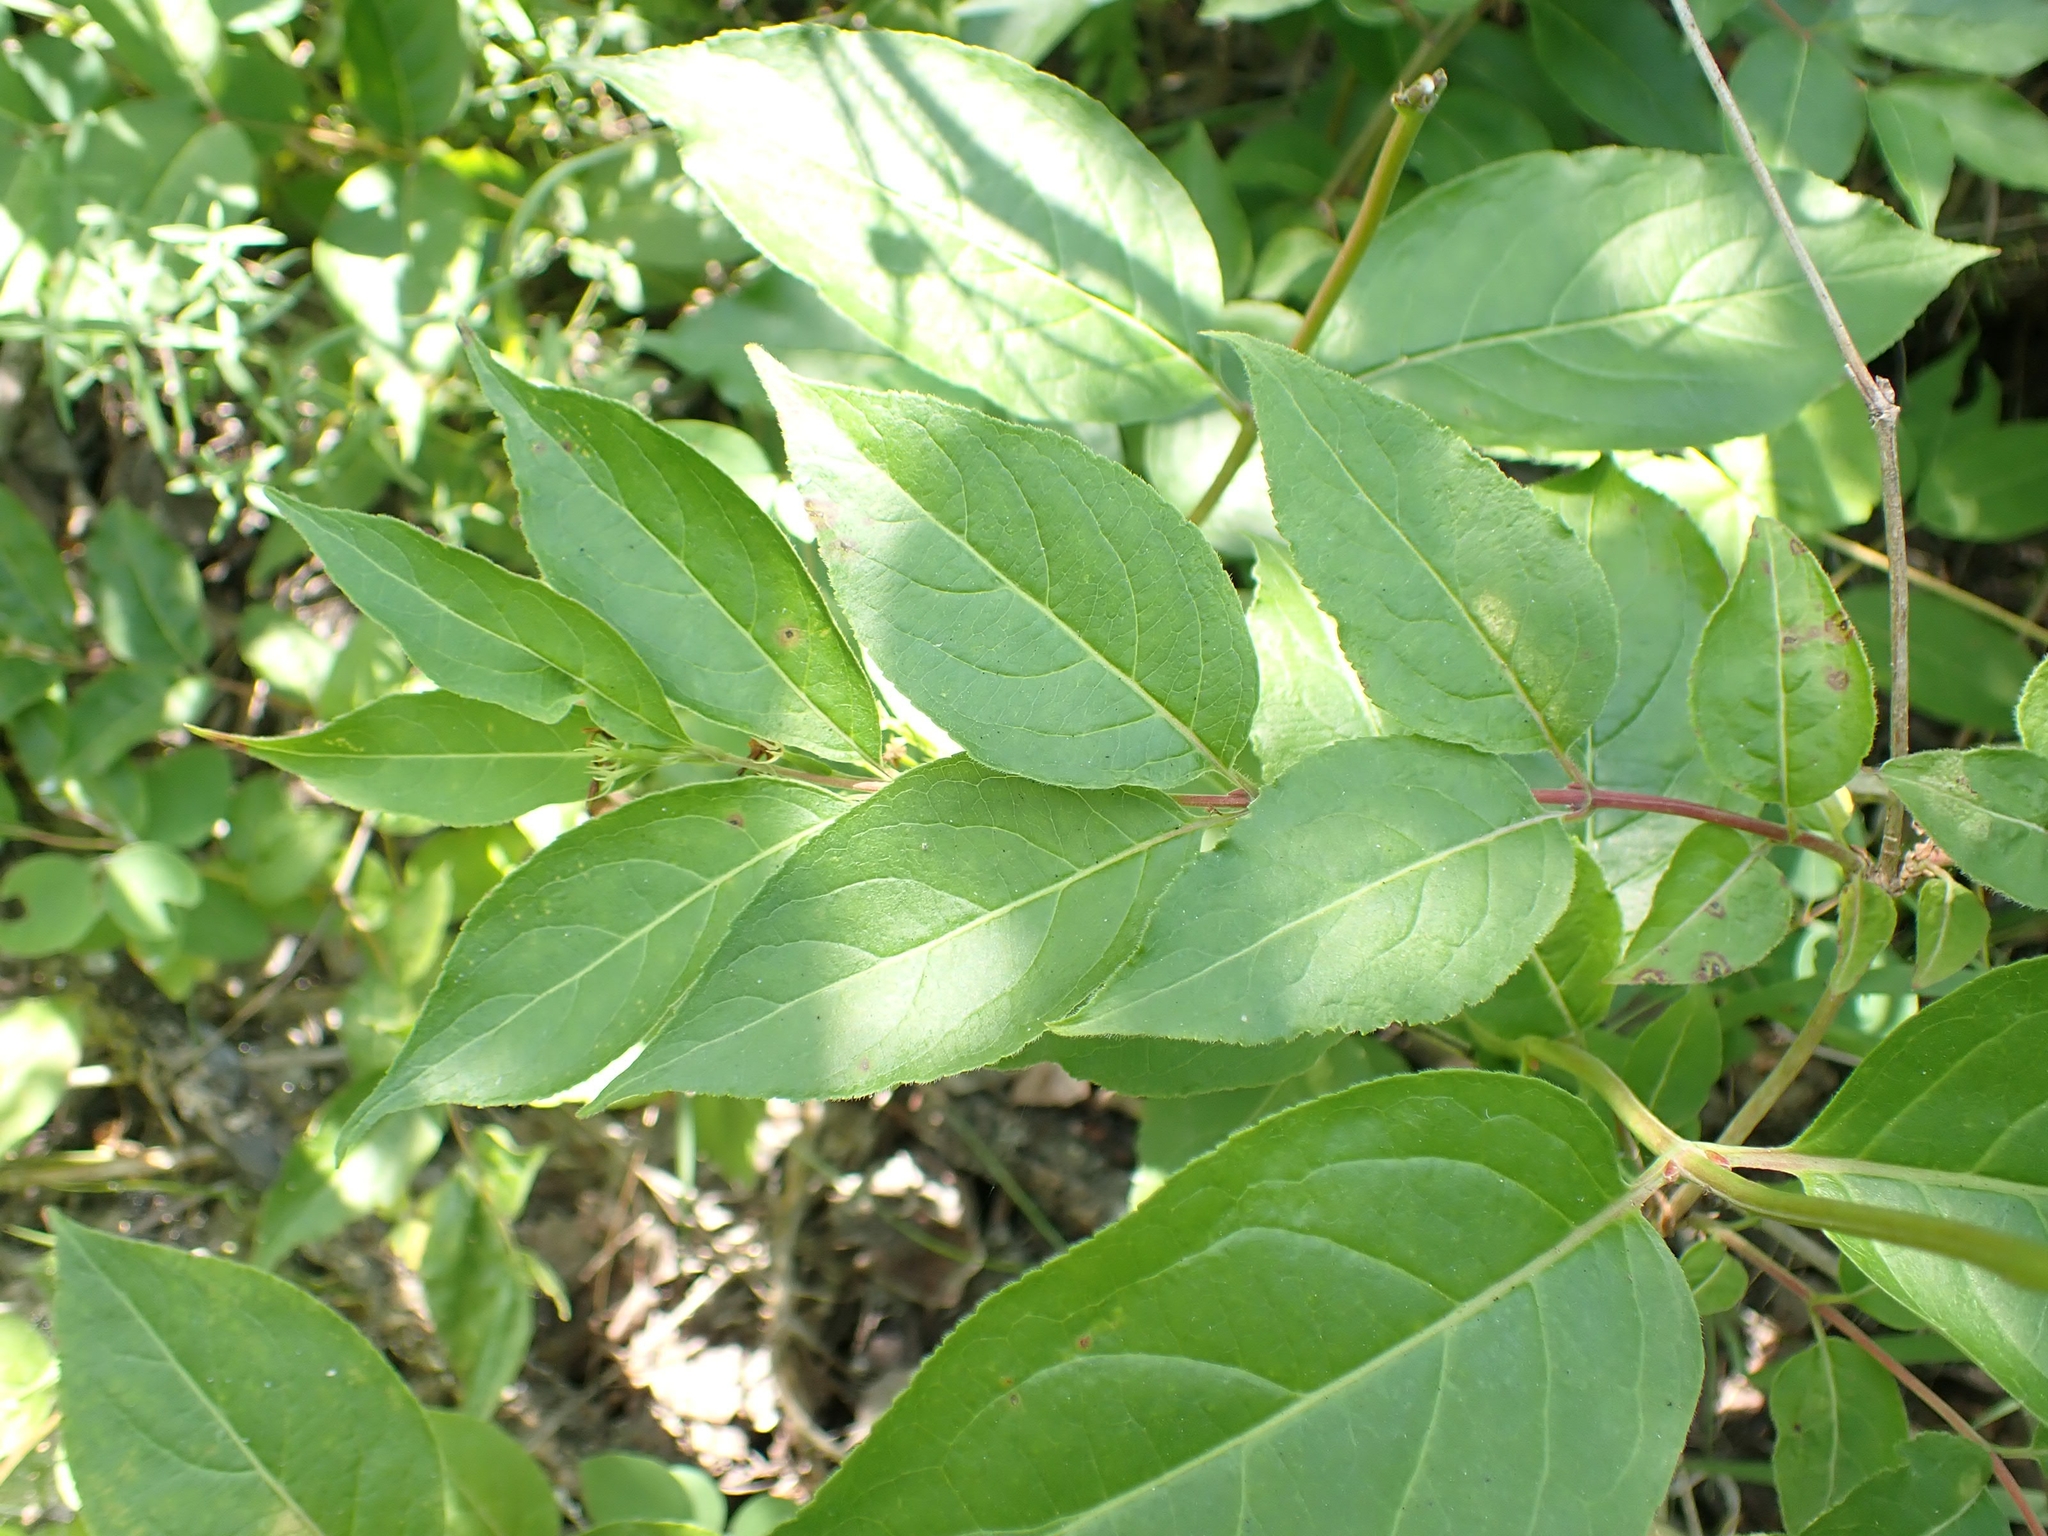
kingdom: Plantae
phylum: Tracheophyta
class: Magnoliopsida
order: Dipsacales
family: Caprifoliaceae
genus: Diervilla
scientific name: Diervilla lonicera
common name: Bush-honeysuckle
